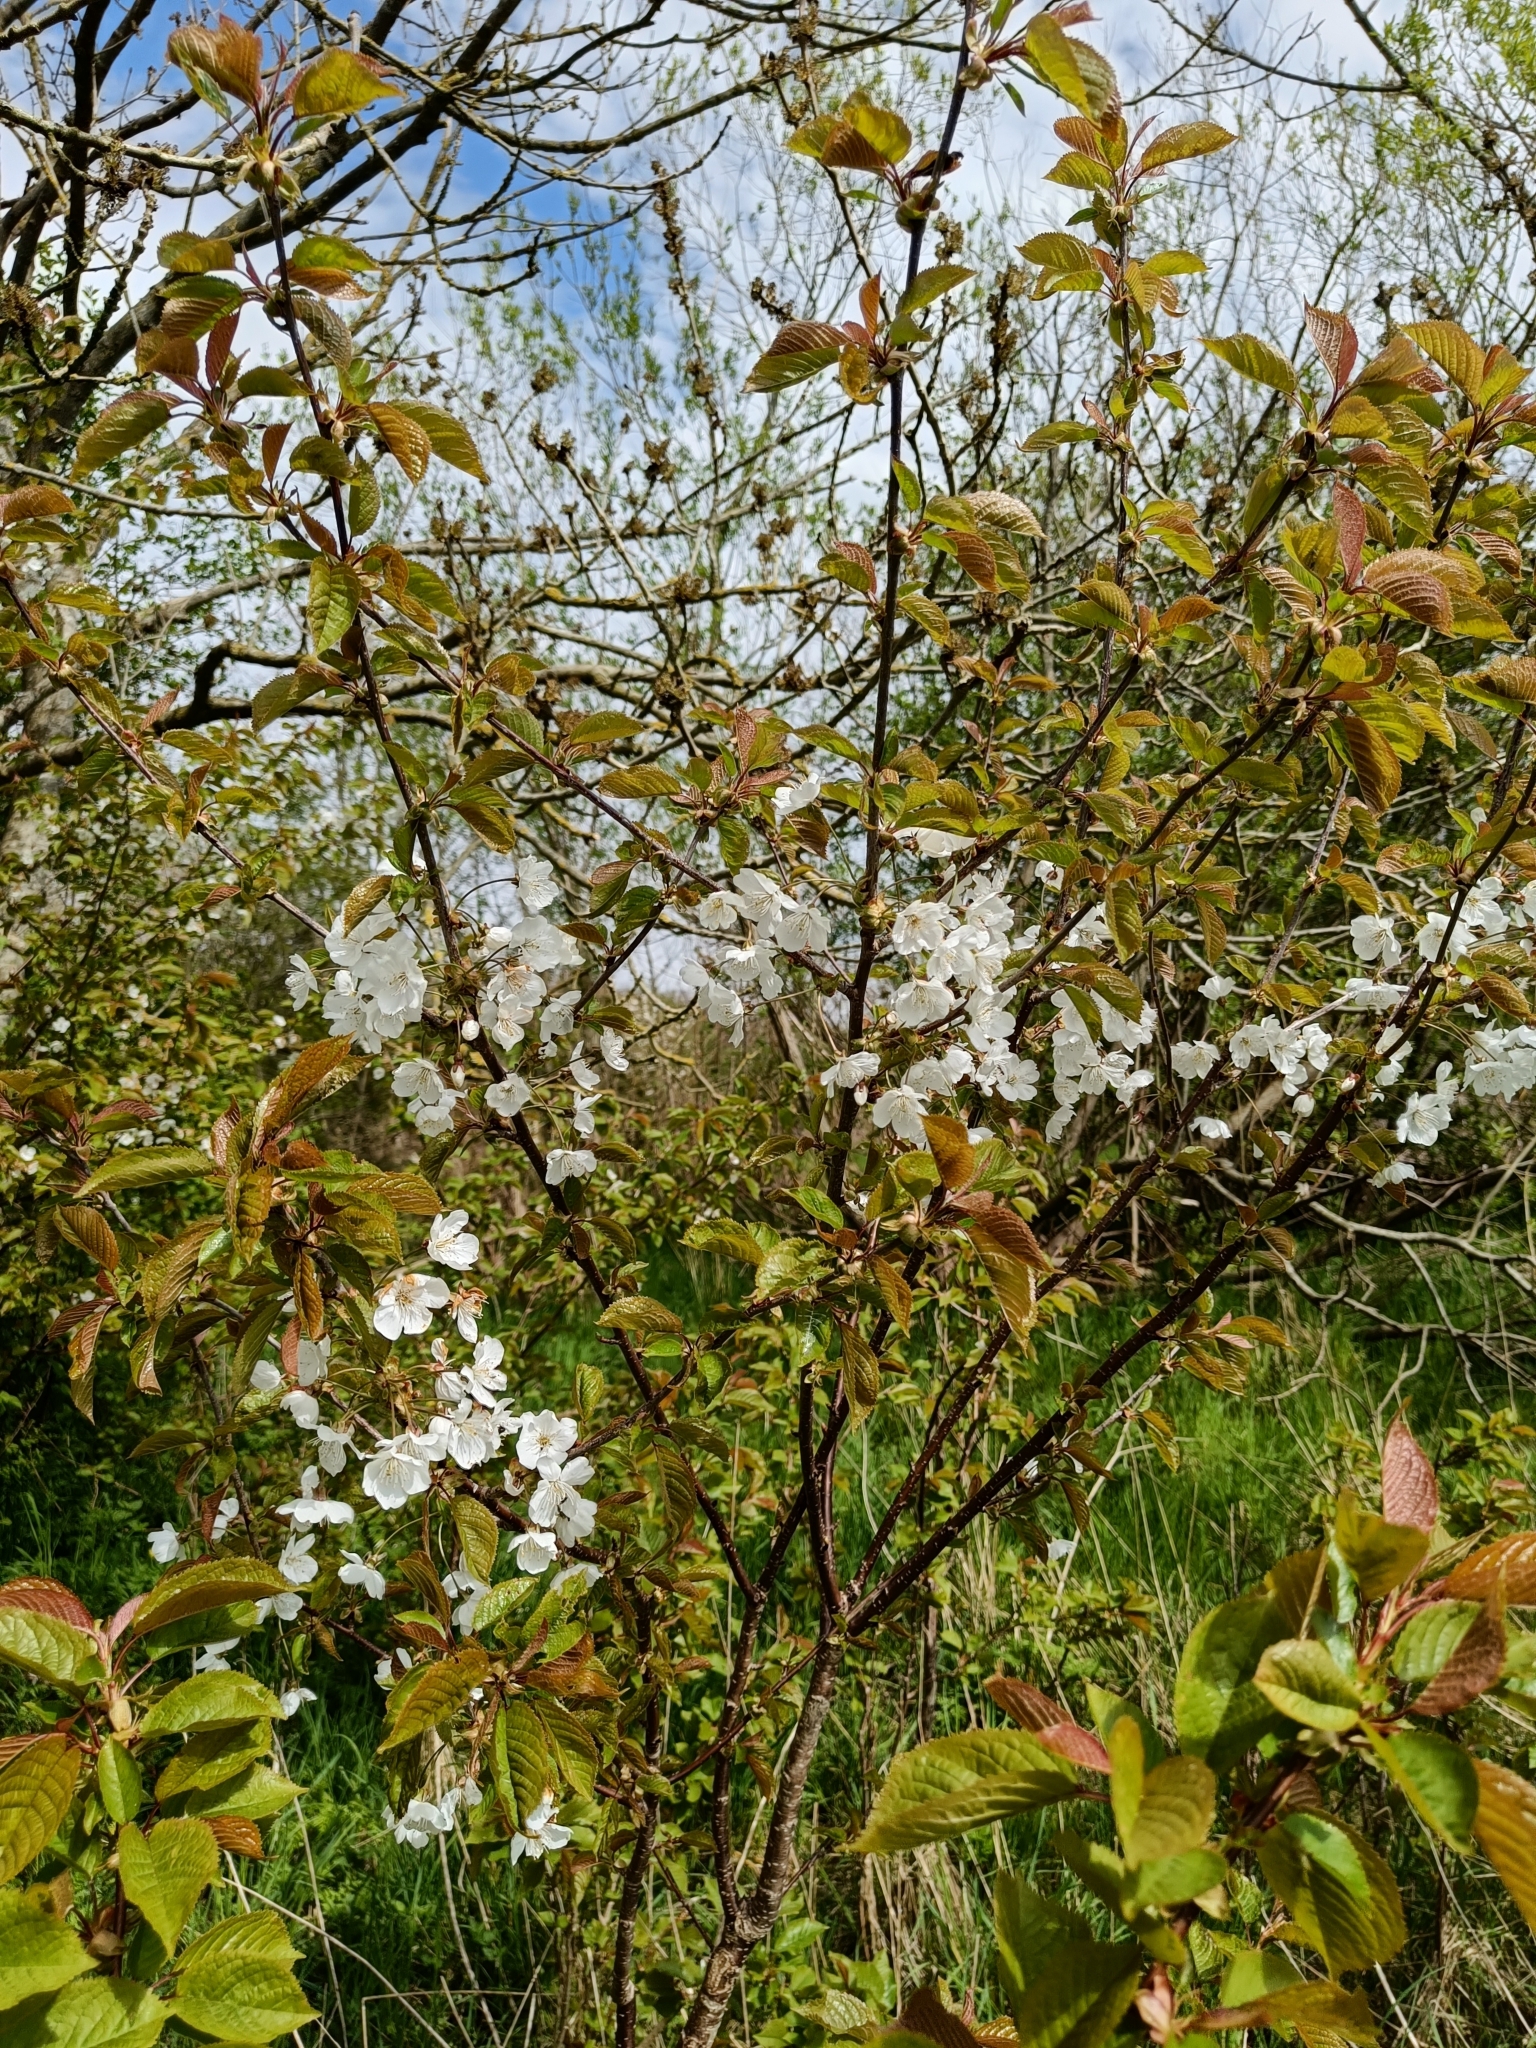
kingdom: Plantae
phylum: Tracheophyta
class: Magnoliopsida
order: Rosales
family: Rosaceae
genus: Prunus
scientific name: Prunus avium
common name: Sweet cherry
